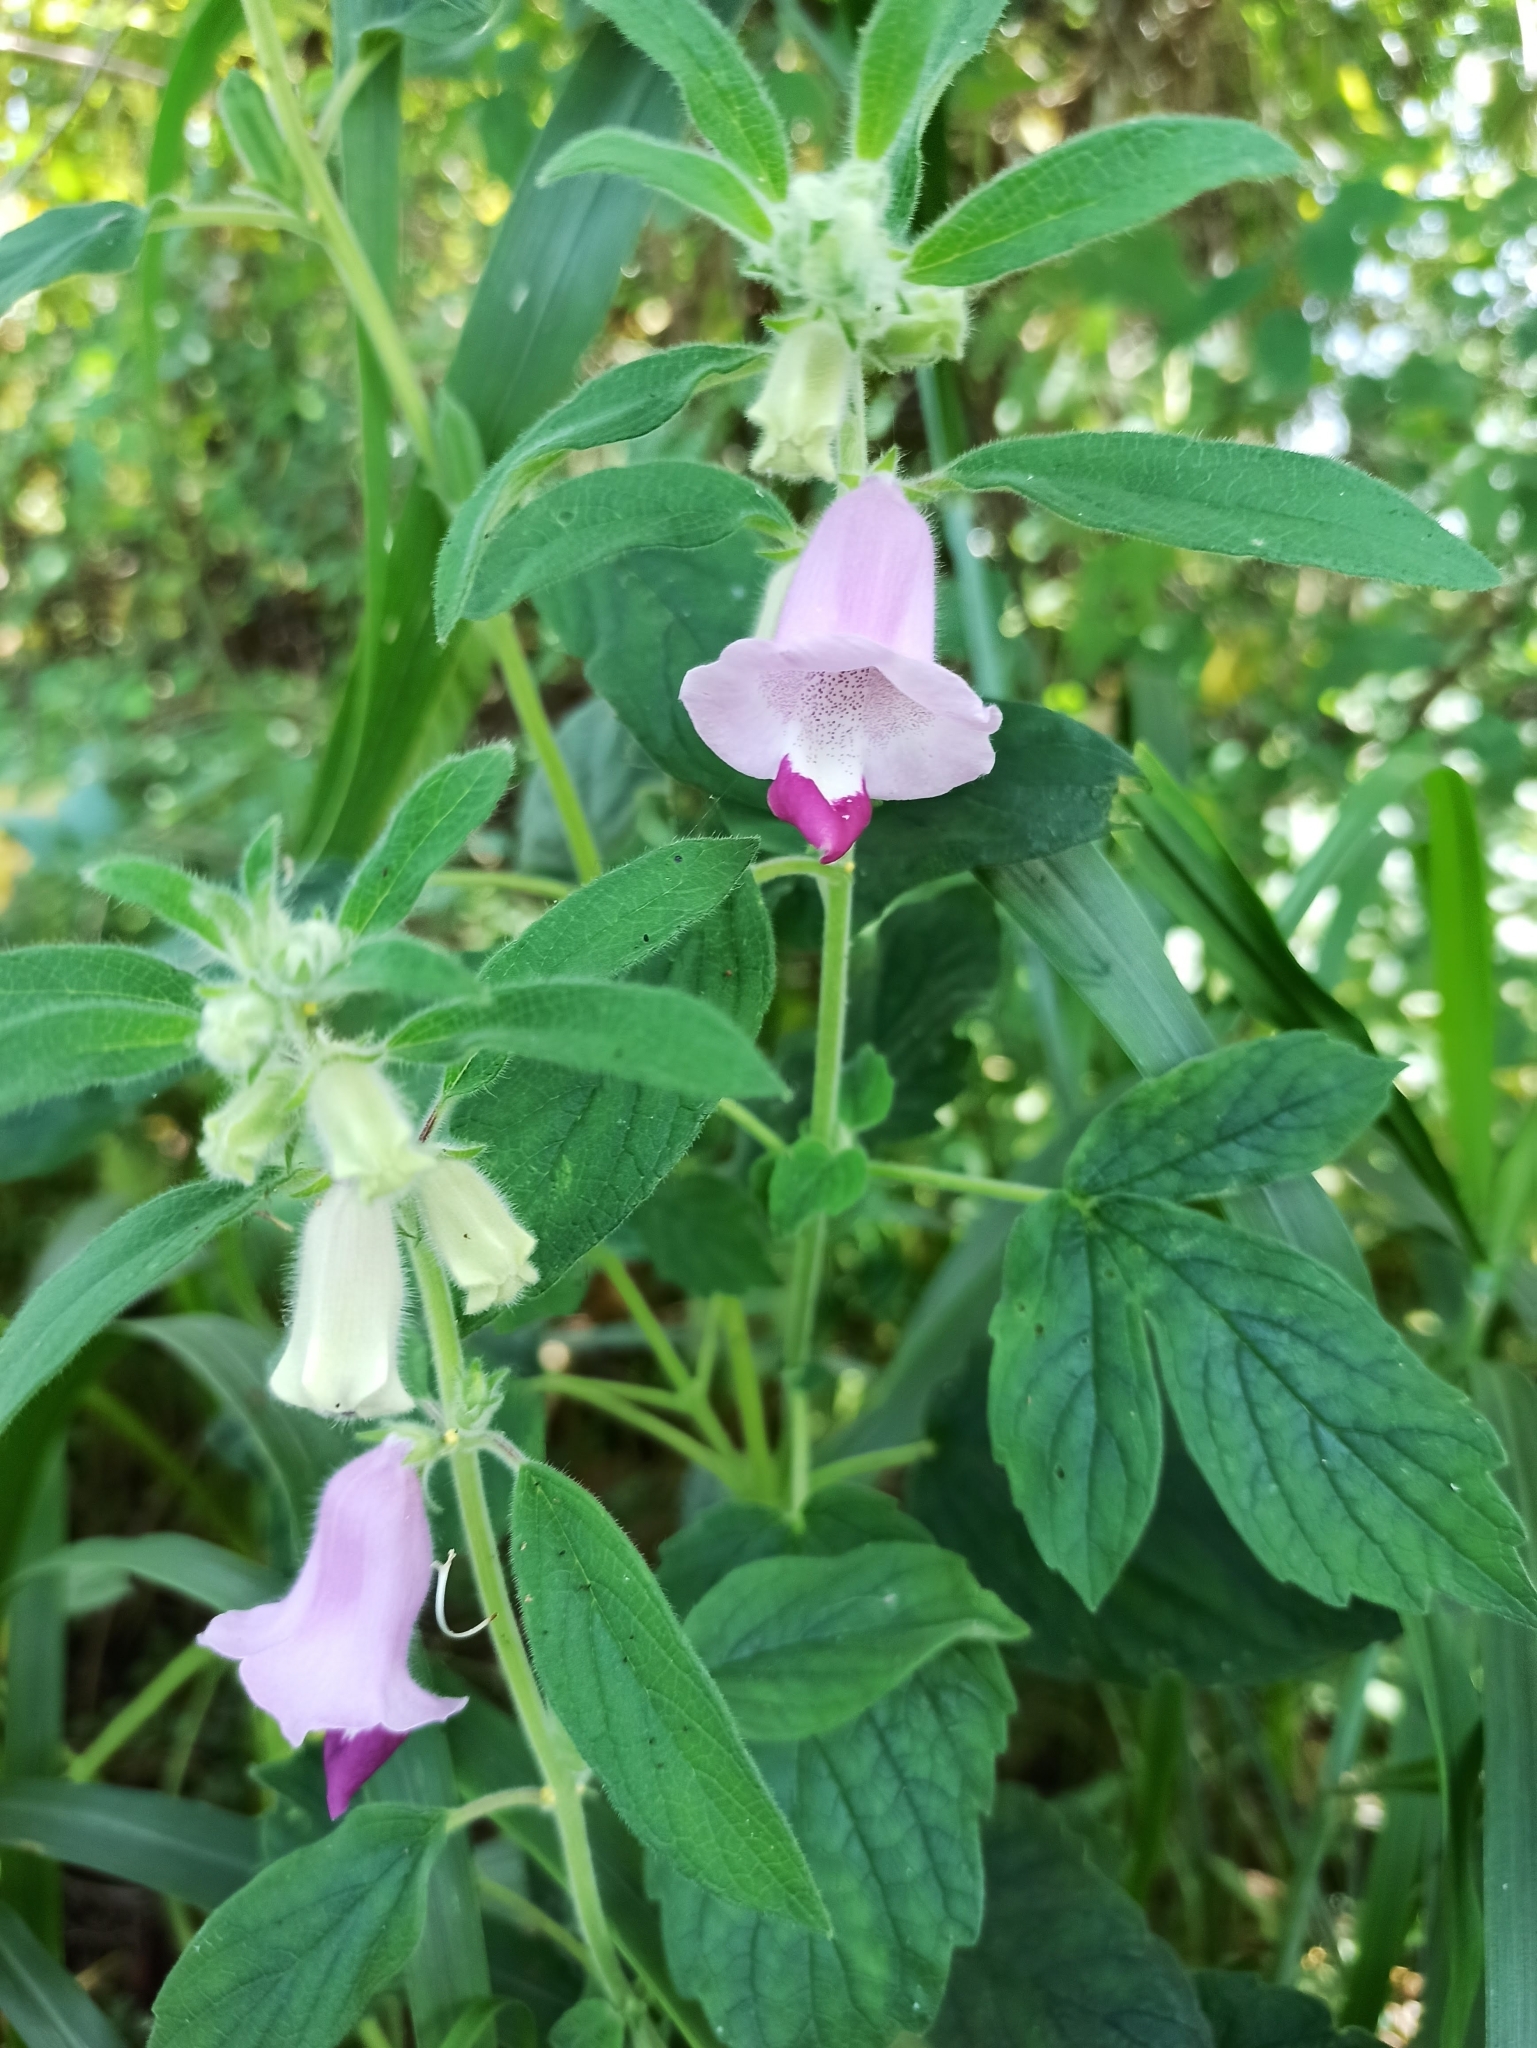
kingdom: Plantae
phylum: Tracheophyta
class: Magnoliopsida
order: Lamiales
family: Pedaliaceae
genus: Sesamum
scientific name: Sesamum indicum
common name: Sesame
